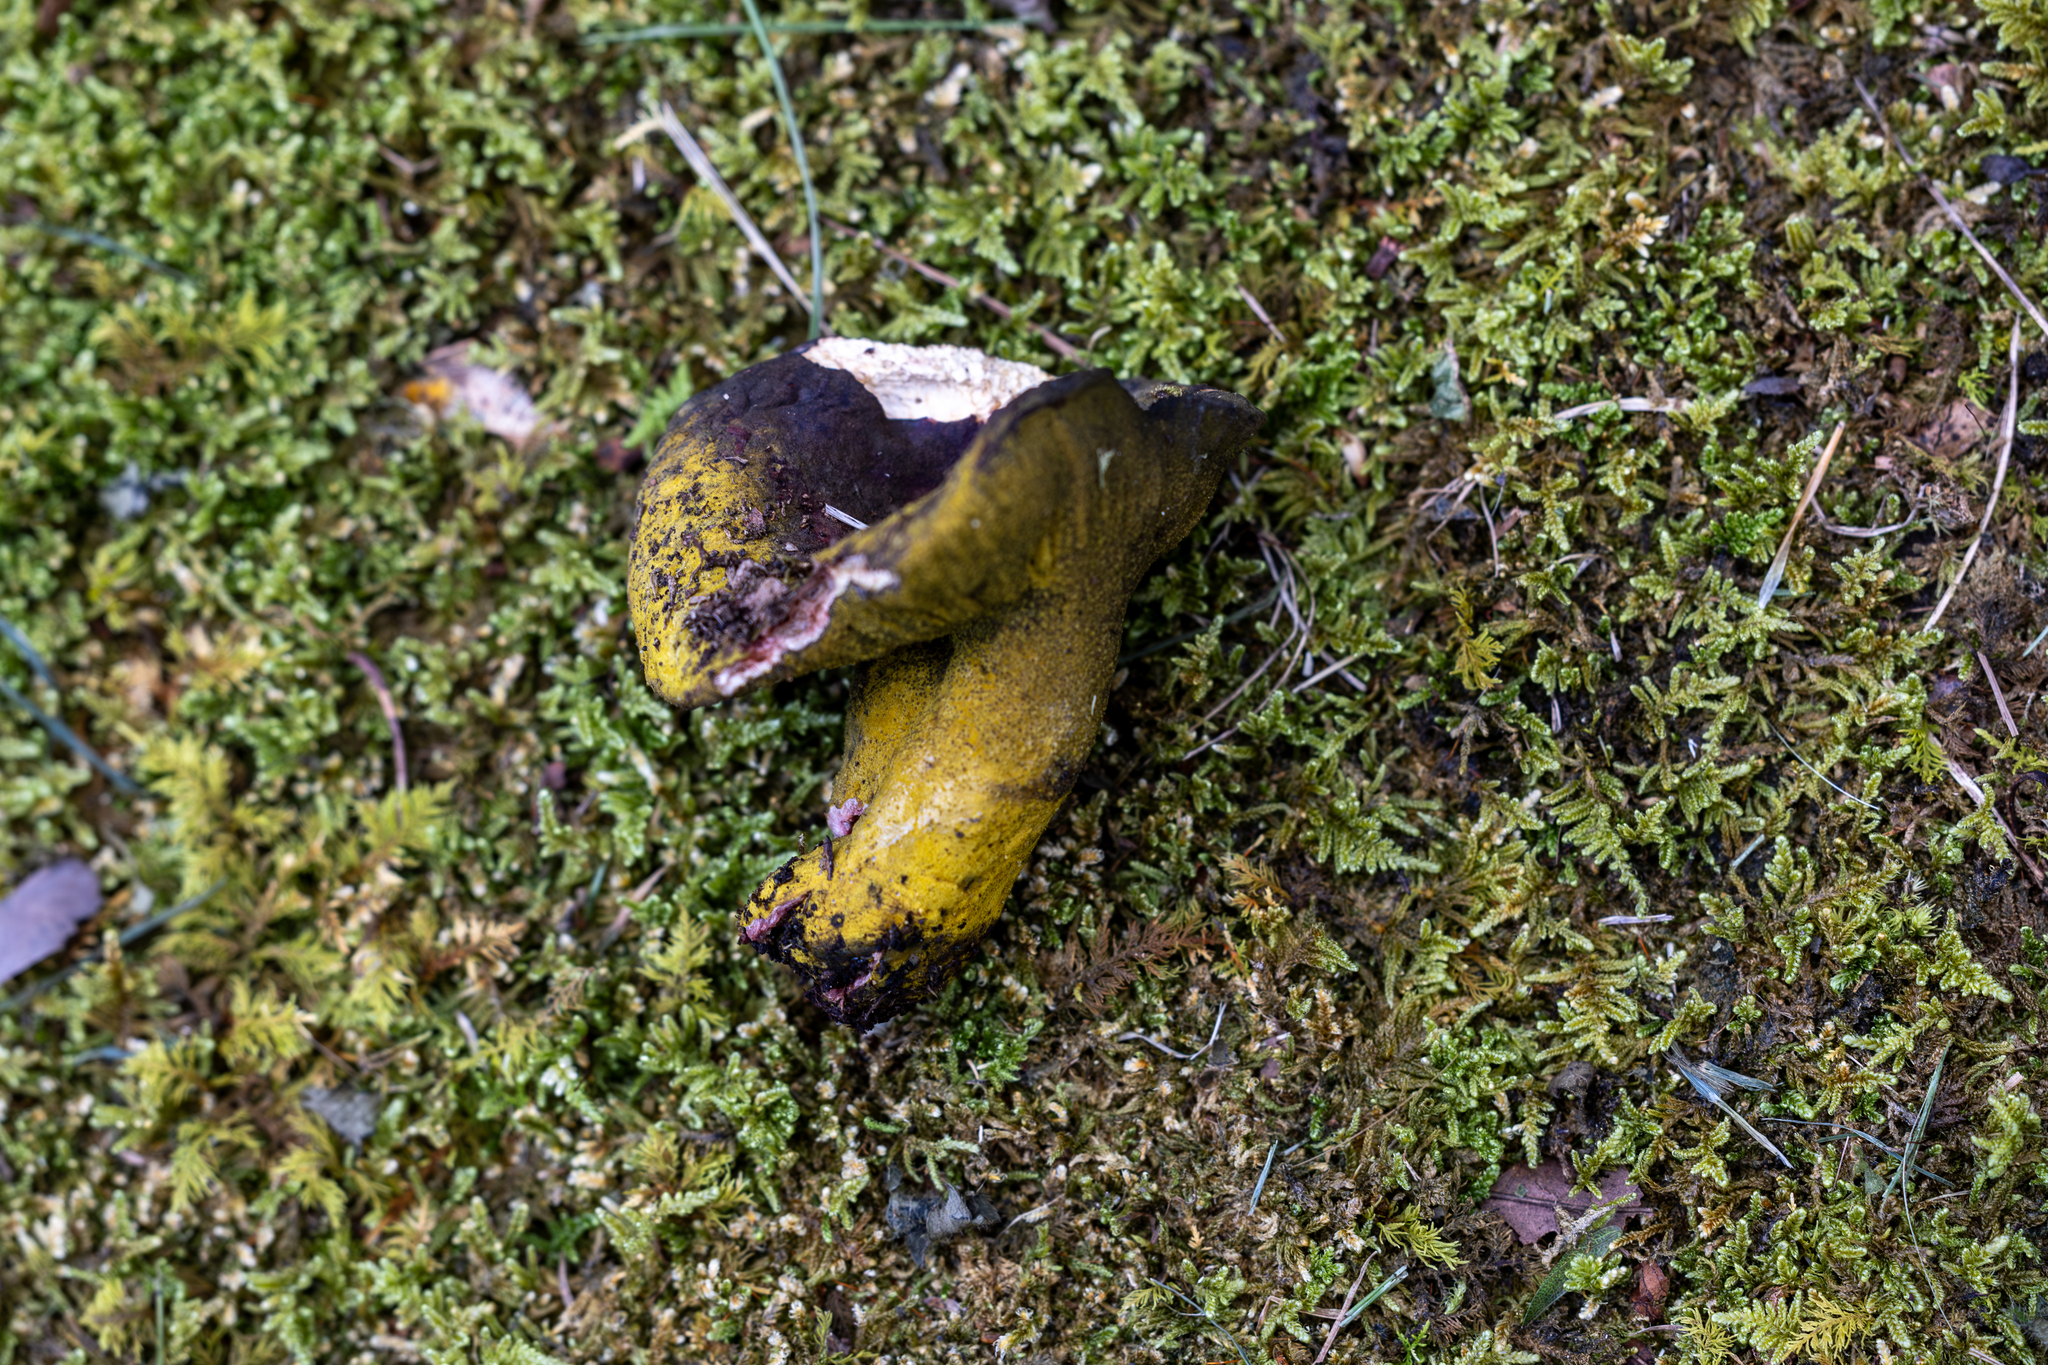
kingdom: Fungi
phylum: Ascomycota
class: Sordariomycetes
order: Hypocreales
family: Hypocreaceae
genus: Hypomyces
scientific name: Hypomyces luteovirens
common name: Yellow-green russula mold
